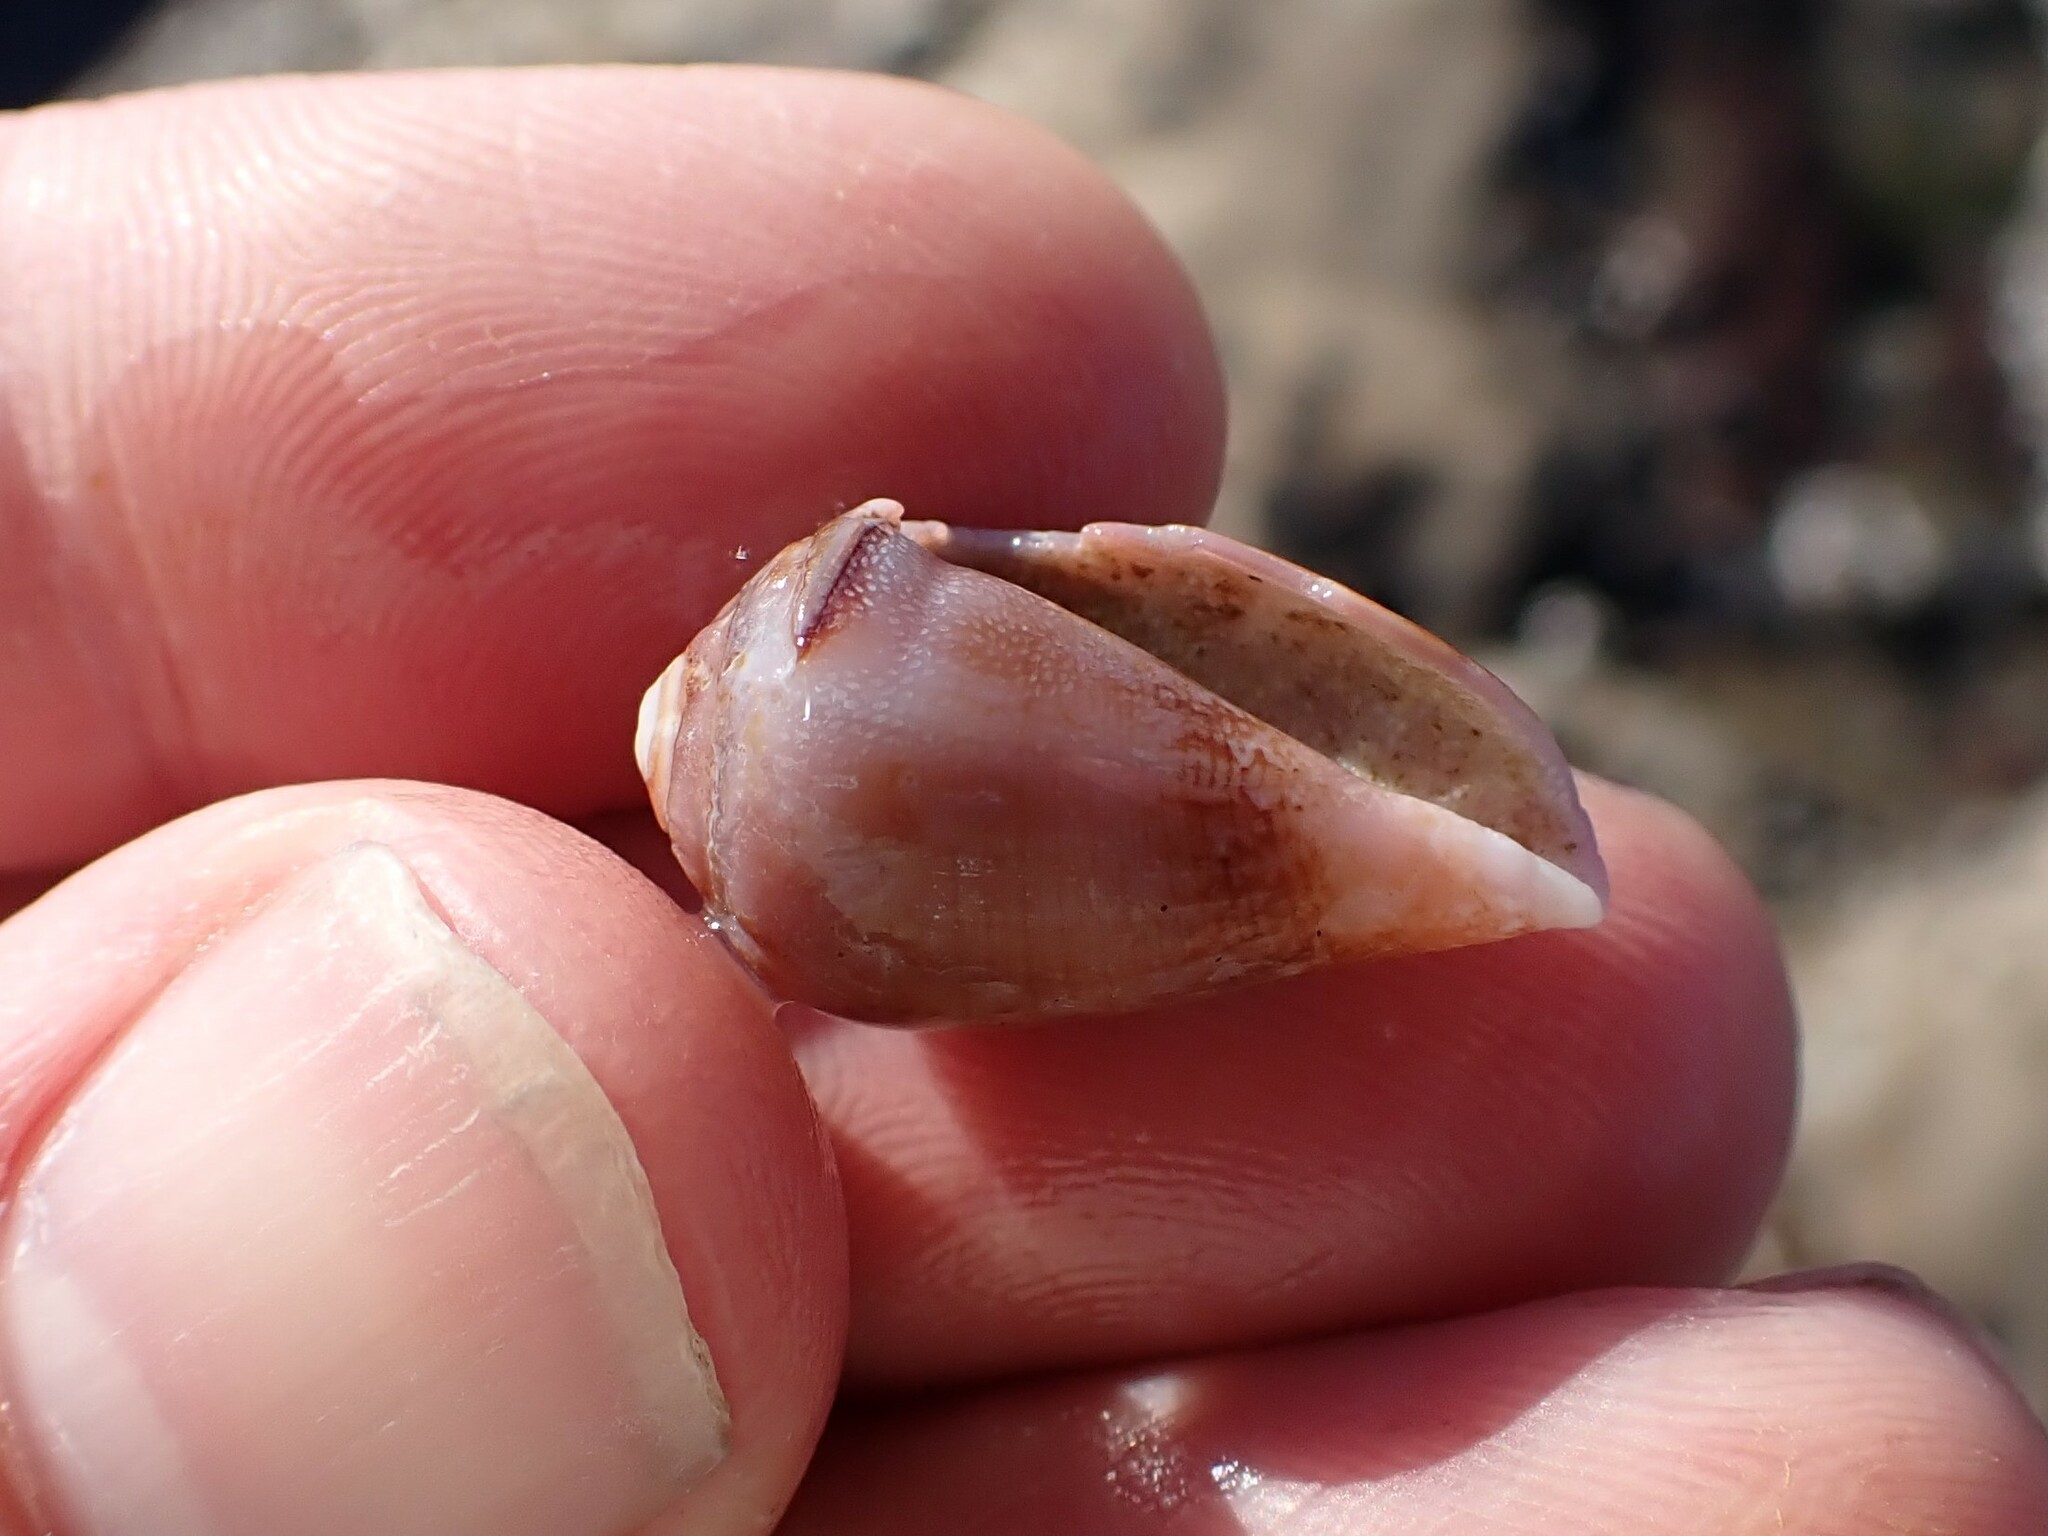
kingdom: Animalia
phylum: Mollusca
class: Gastropoda
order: Neogastropoda
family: Conidae
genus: Californiconus
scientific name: Californiconus californicus
